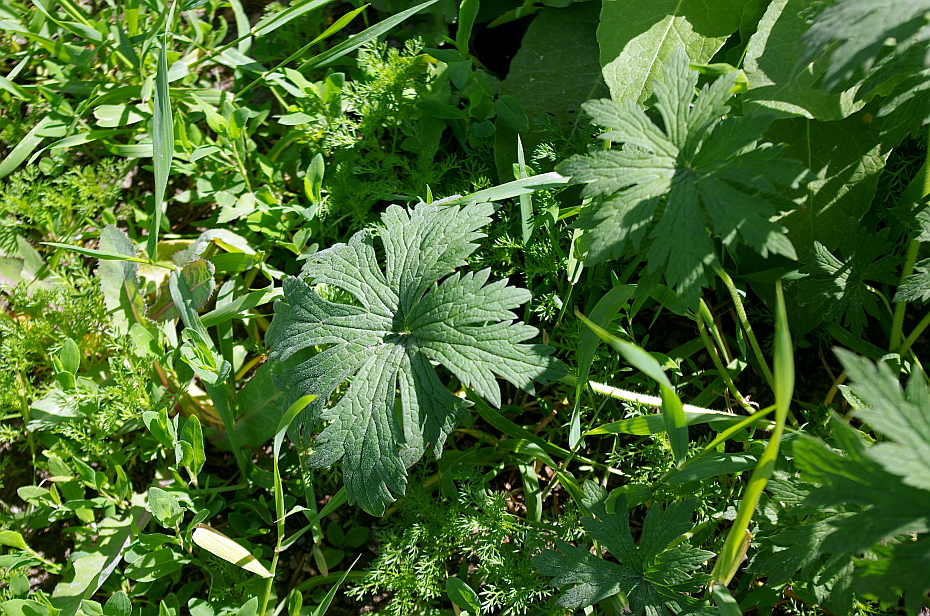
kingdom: Plantae
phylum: Tracheophyta
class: Magnoliopsida
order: Geraniales
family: Geraniaceae
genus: Geranium
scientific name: Geranium pratense
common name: Meadow crane's-bill
